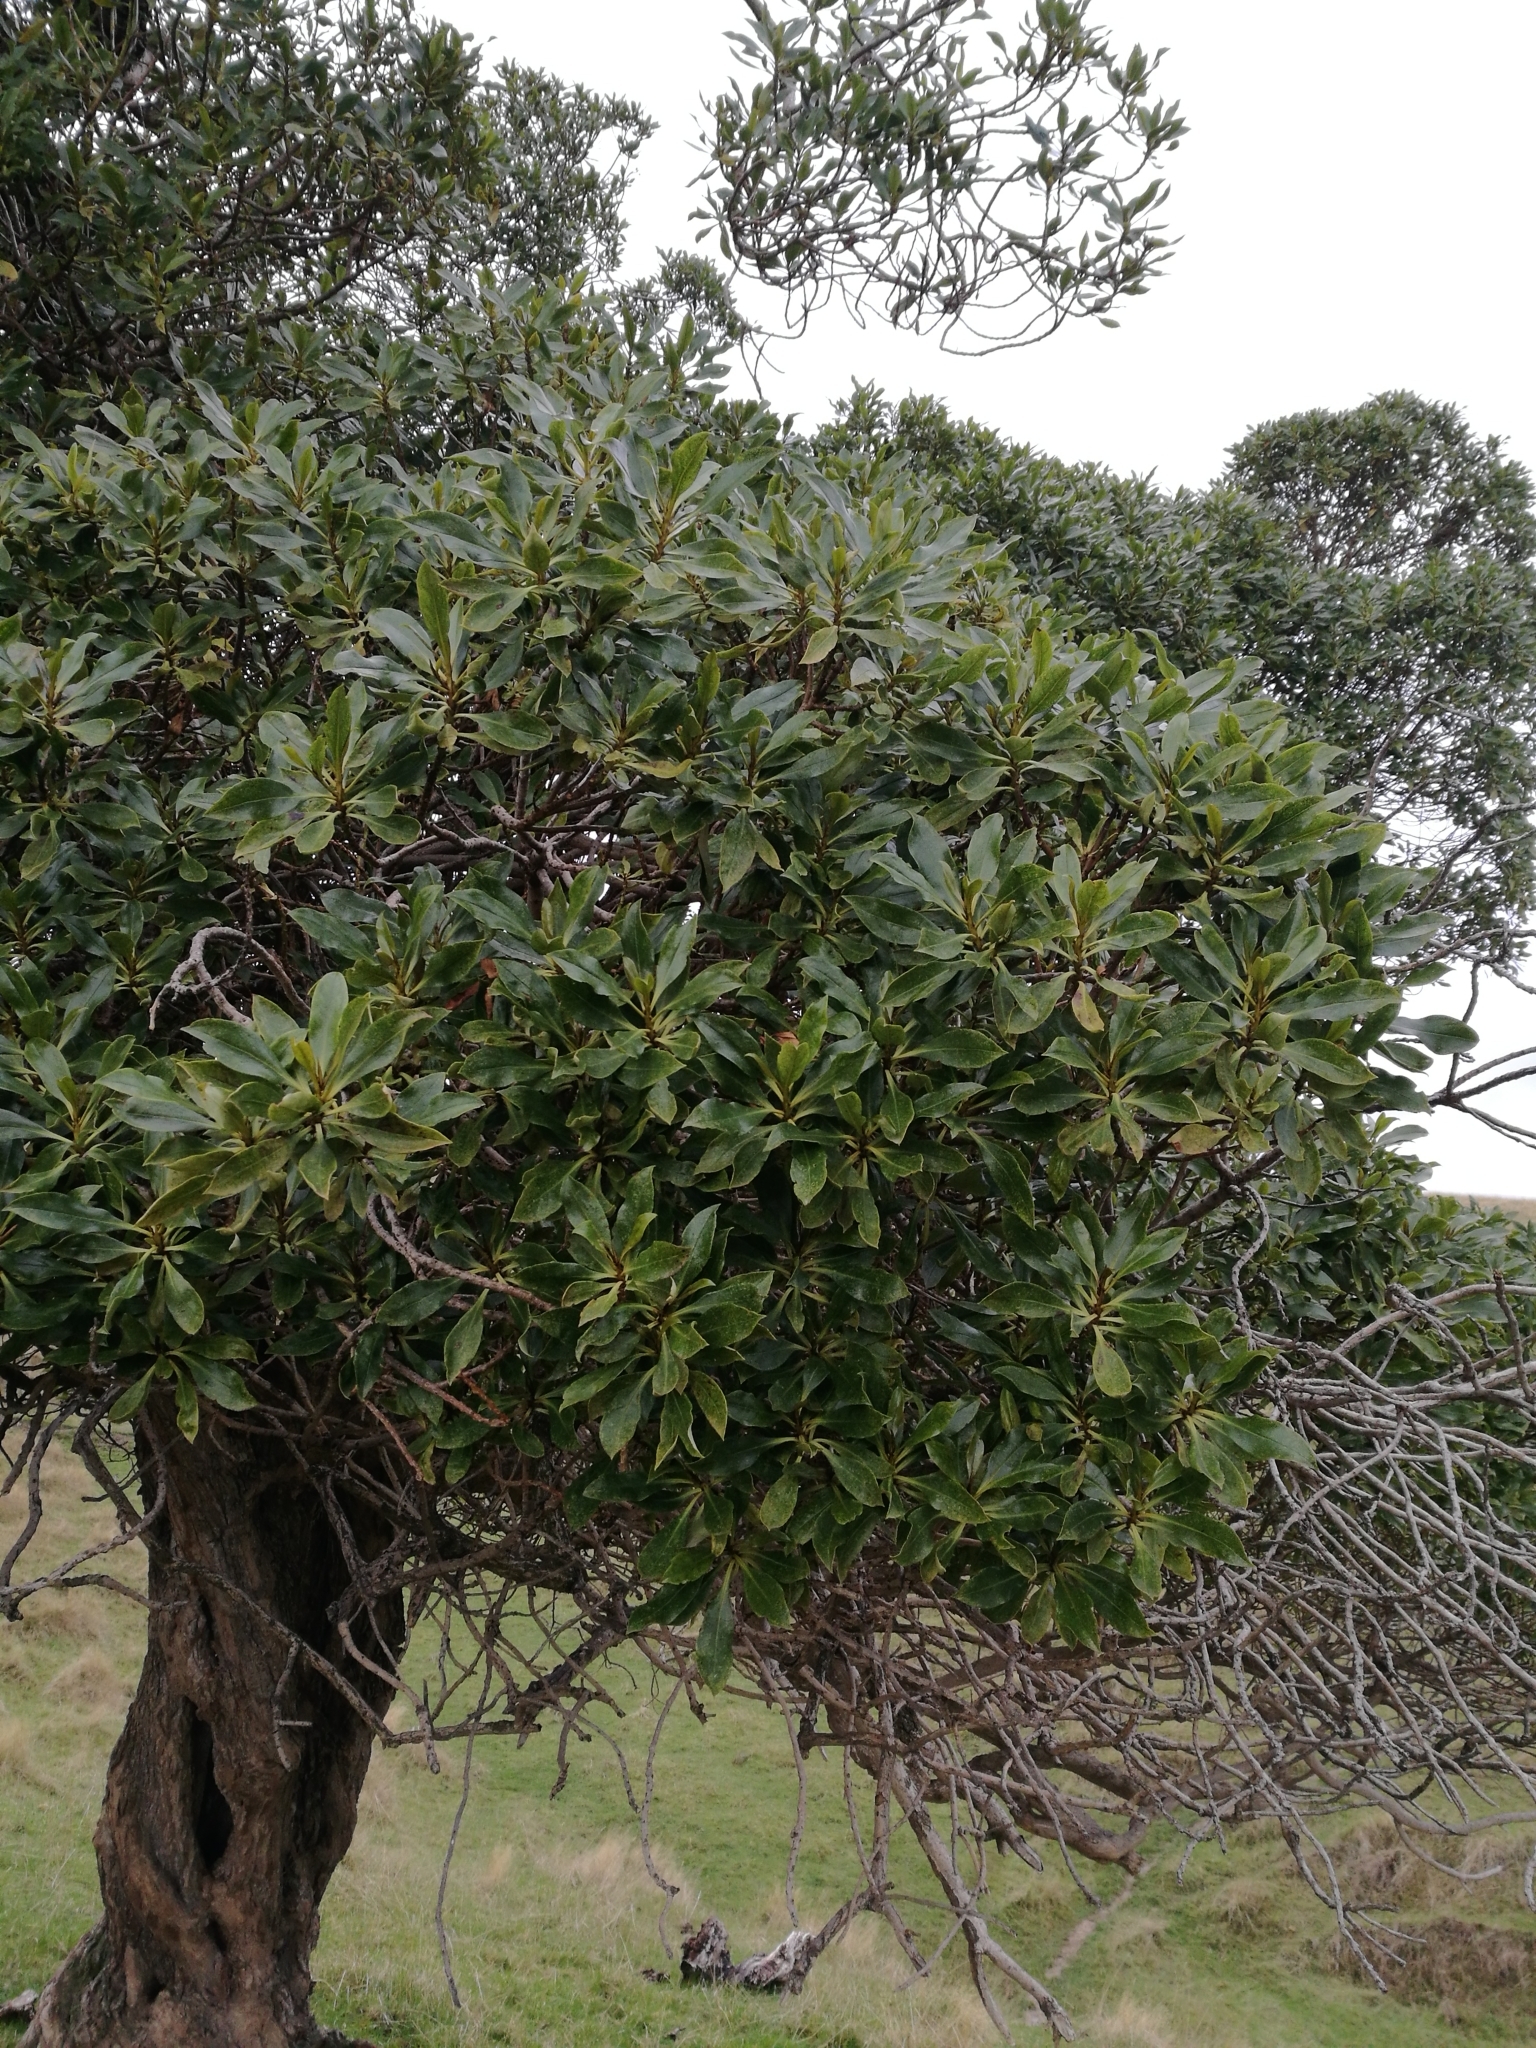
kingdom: Plantae
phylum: Tracheophyta
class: Magnoliopsida
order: Lamiales
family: Scrophulariaceae
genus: Myoporum
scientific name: Myoporum laetum
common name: Ngaio tree
